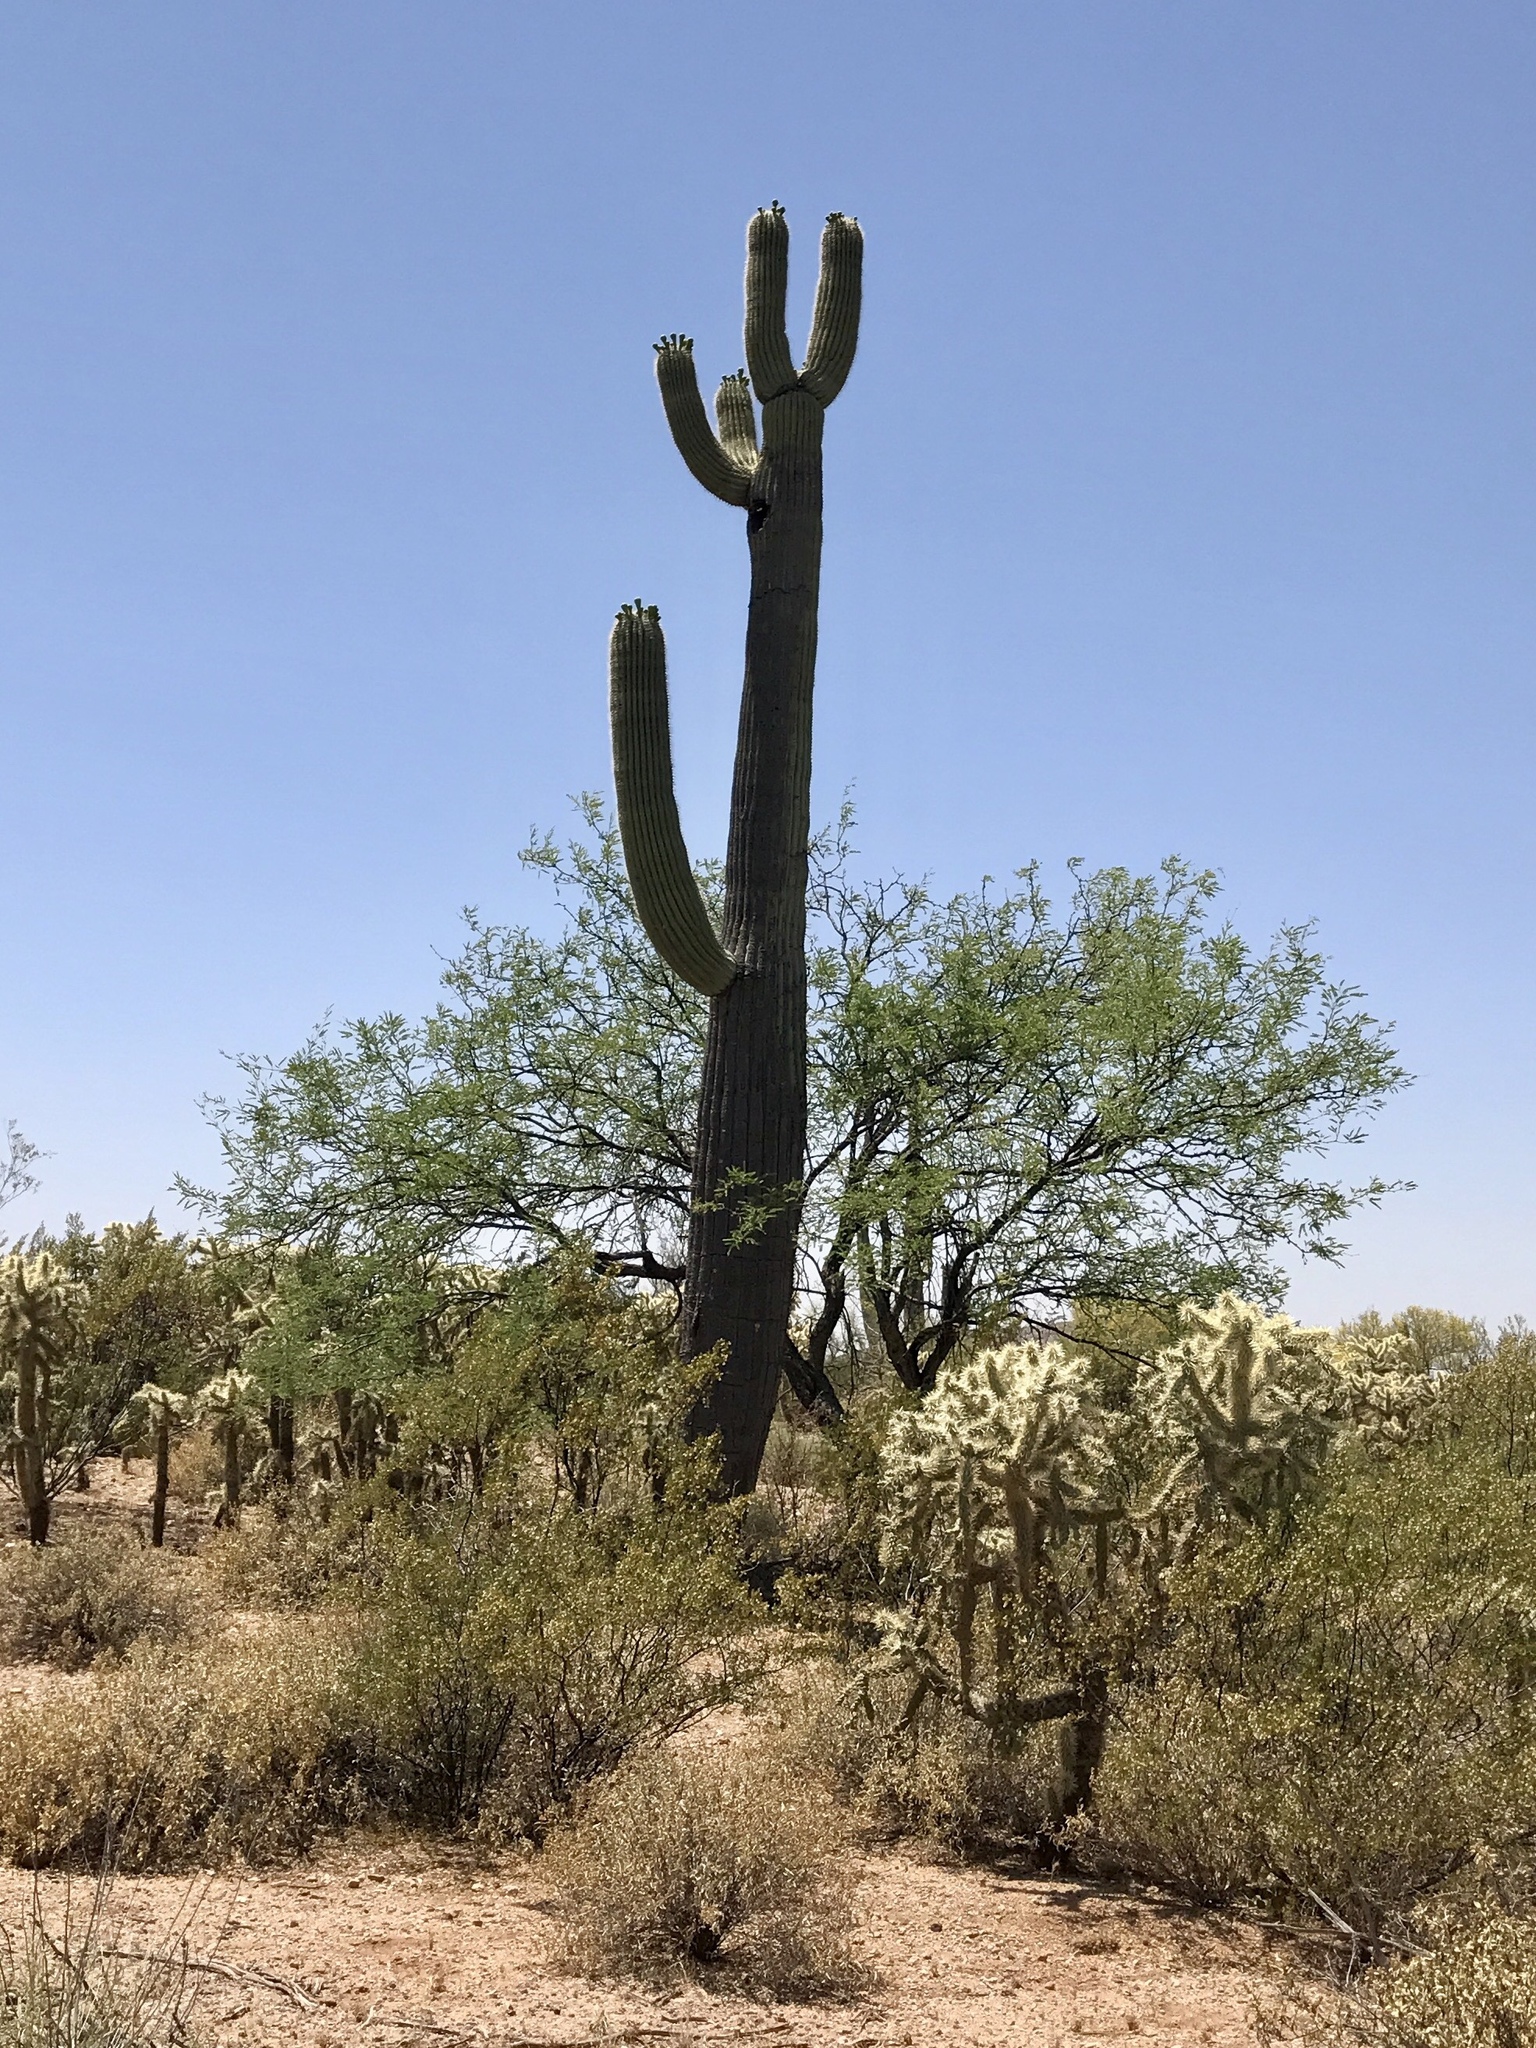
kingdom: Plantae
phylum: Tracheophyta
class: Magnoliopsida
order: Caryophyllales
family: Cactaceae
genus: Carnegiea
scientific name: Carnegiea gigantea
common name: Saguaro
